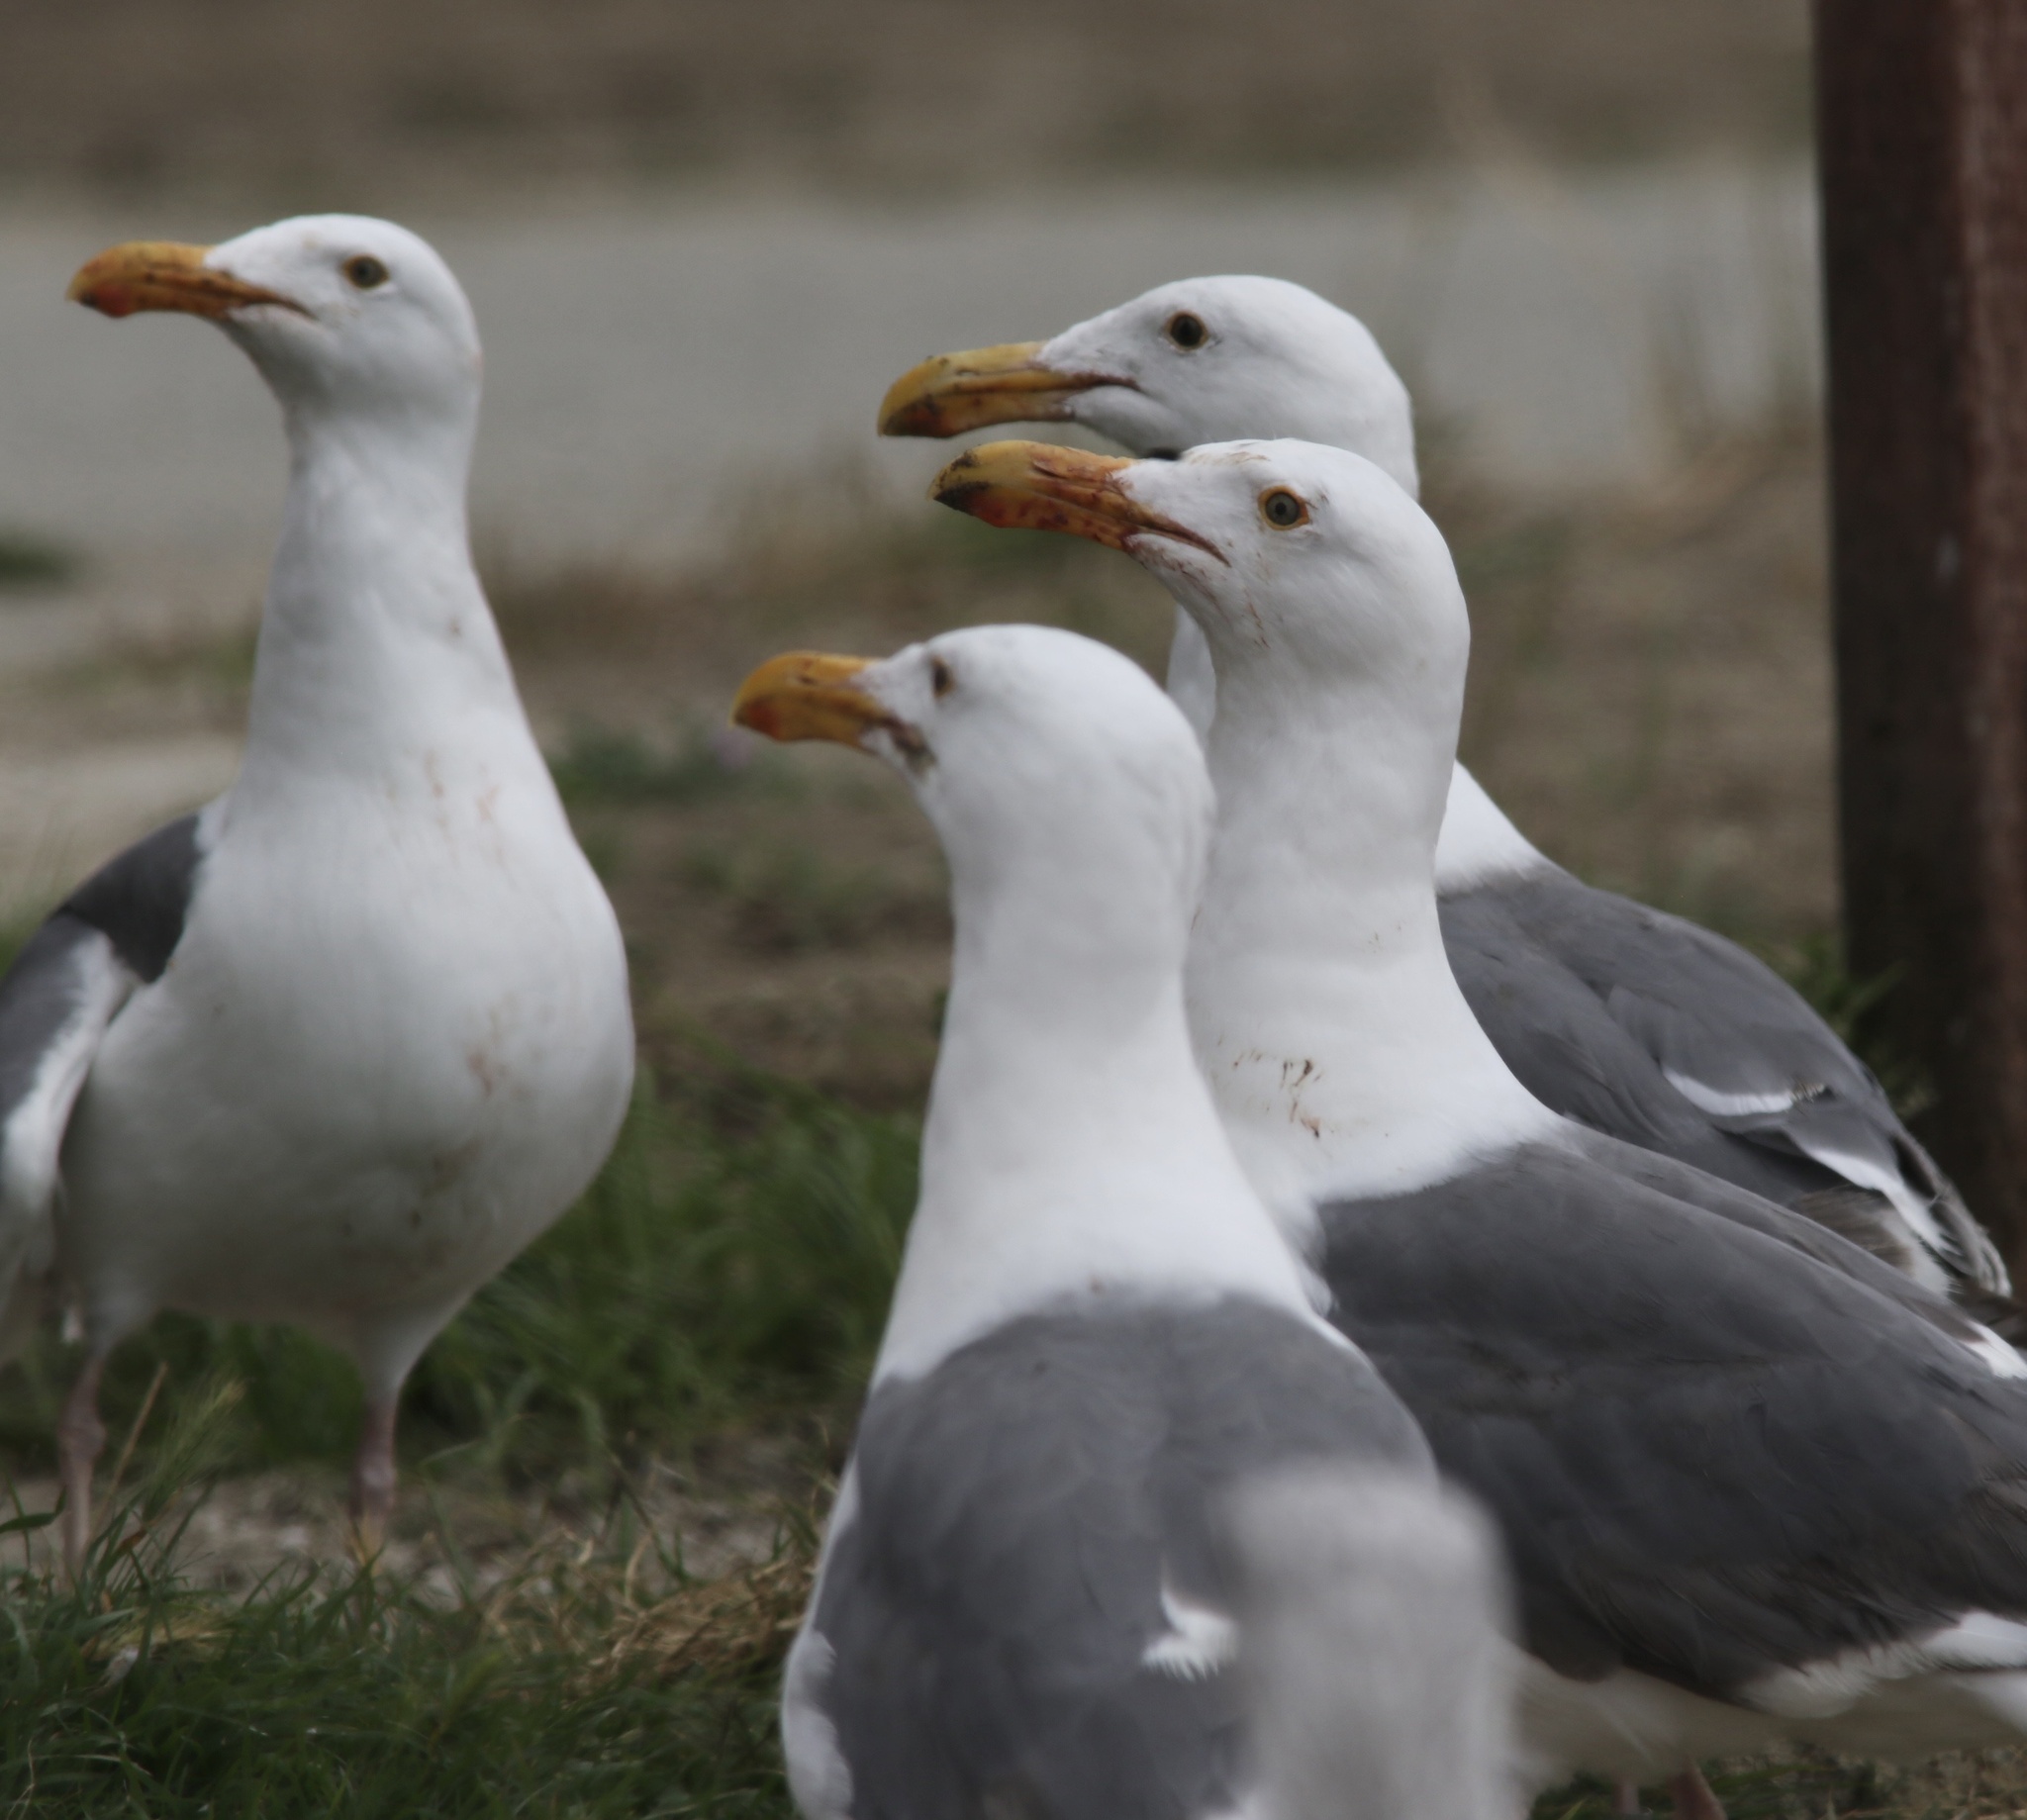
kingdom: Animalia
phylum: Chordata
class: Aves
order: Charadriiformes
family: Laridae
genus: Larus
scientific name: Larus occidentalis
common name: Western gull
